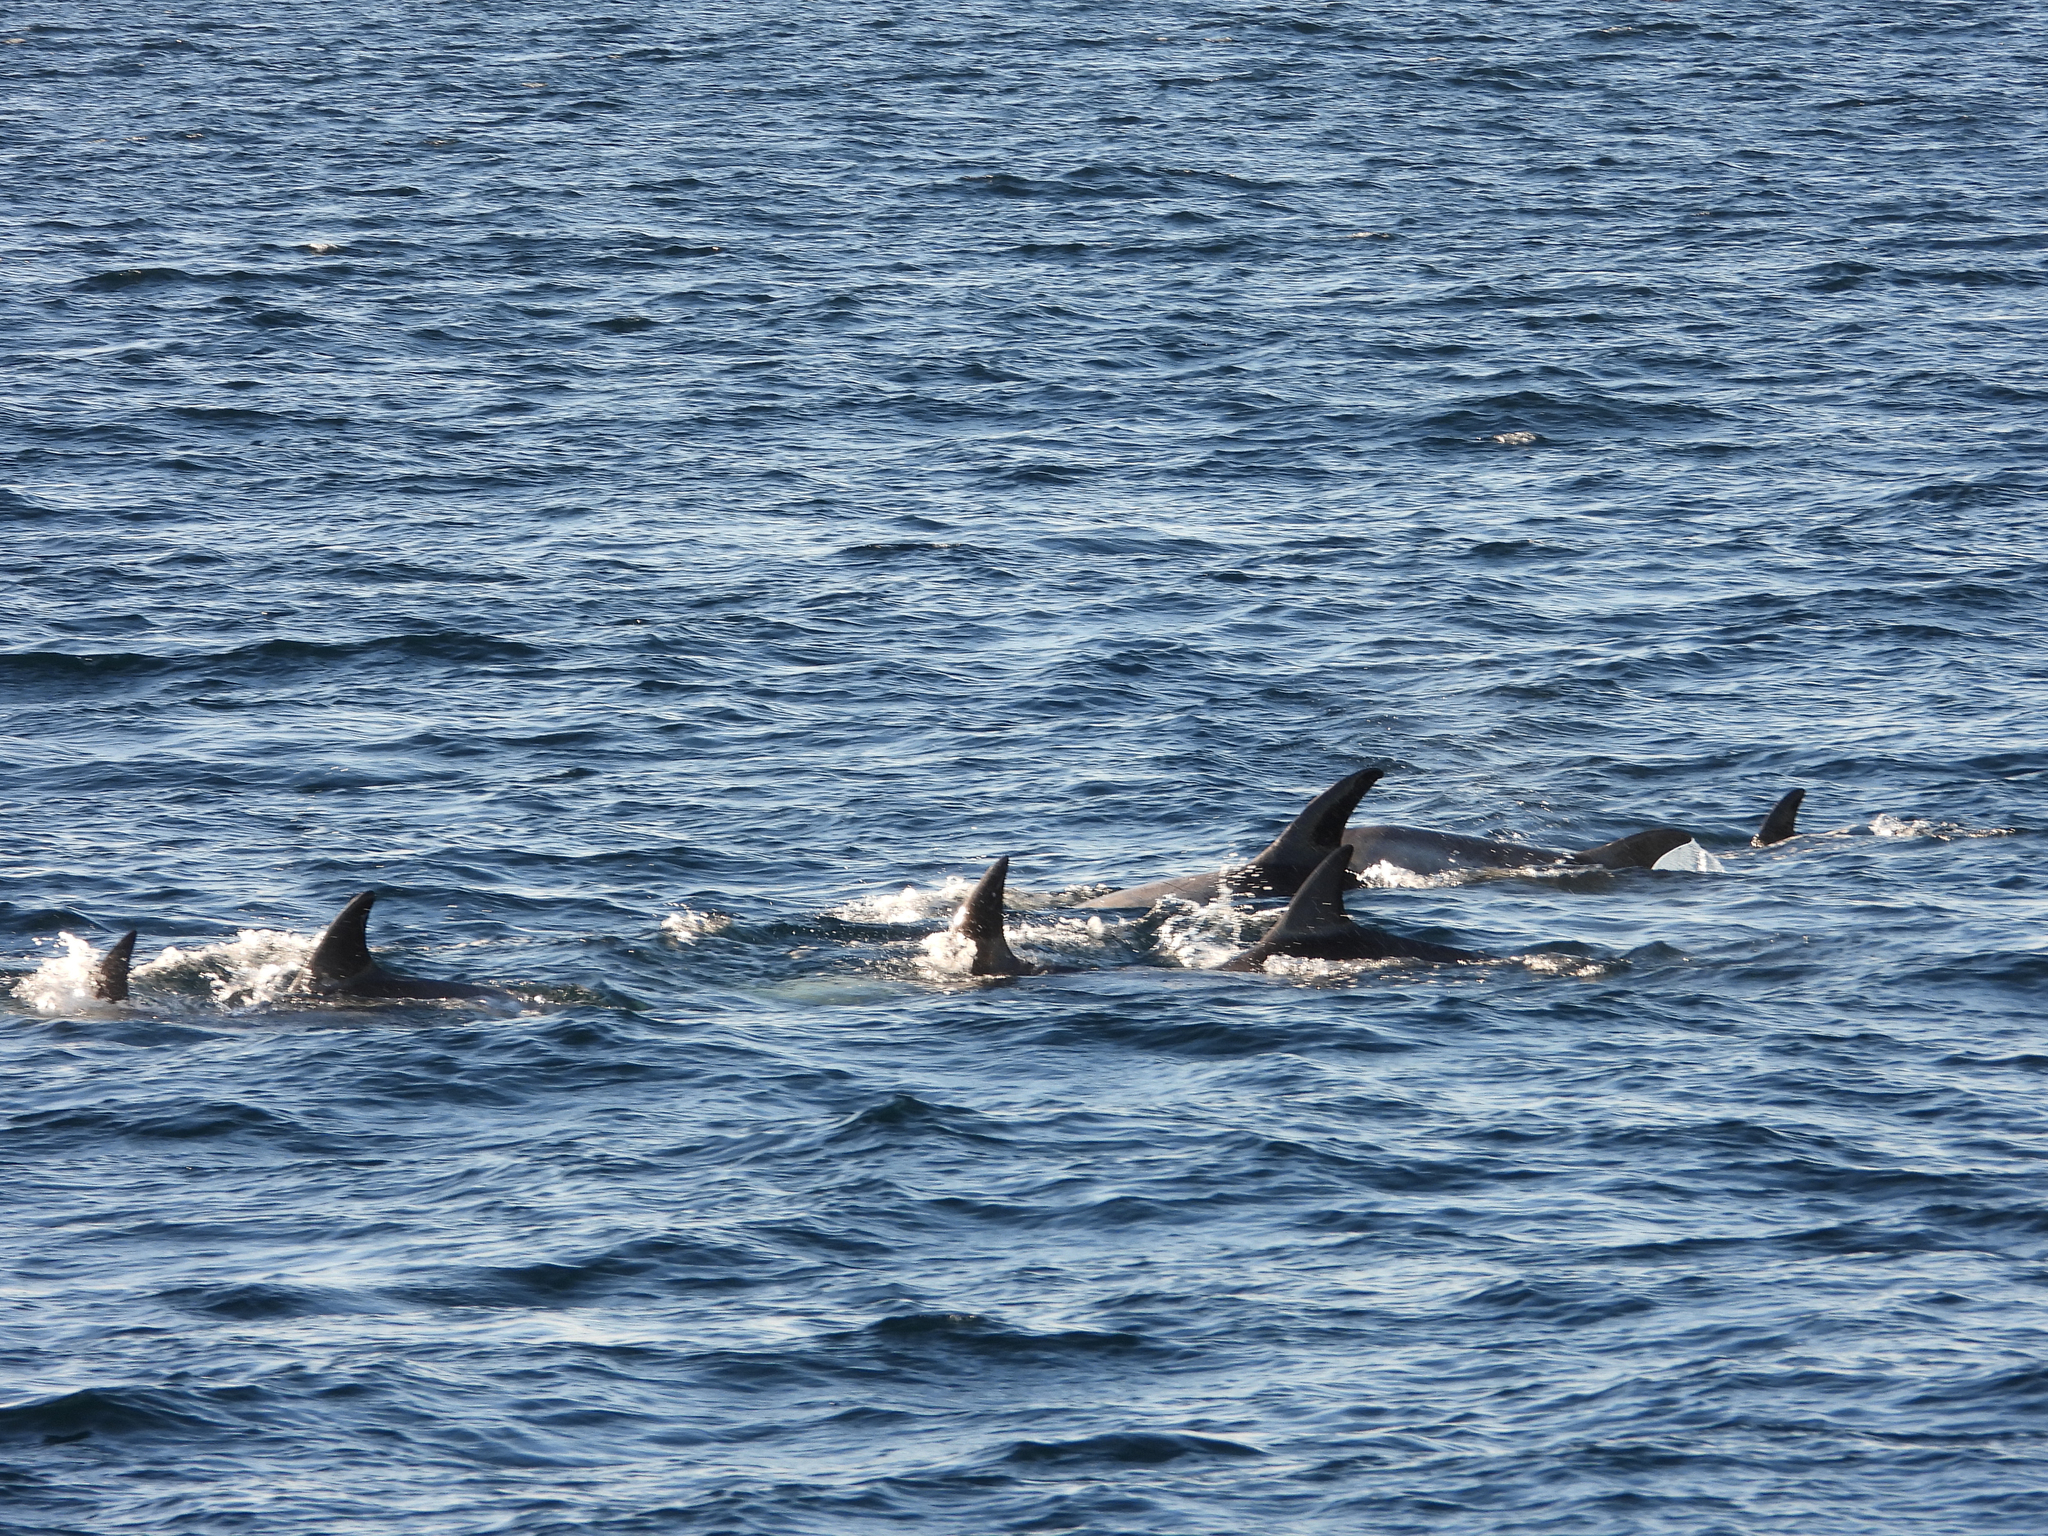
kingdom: Animalia
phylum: Chordata
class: Mammalia
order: Cetacea
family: Delphinidae
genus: Grampus
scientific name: Grampus griseus
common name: Risso's dolphin
